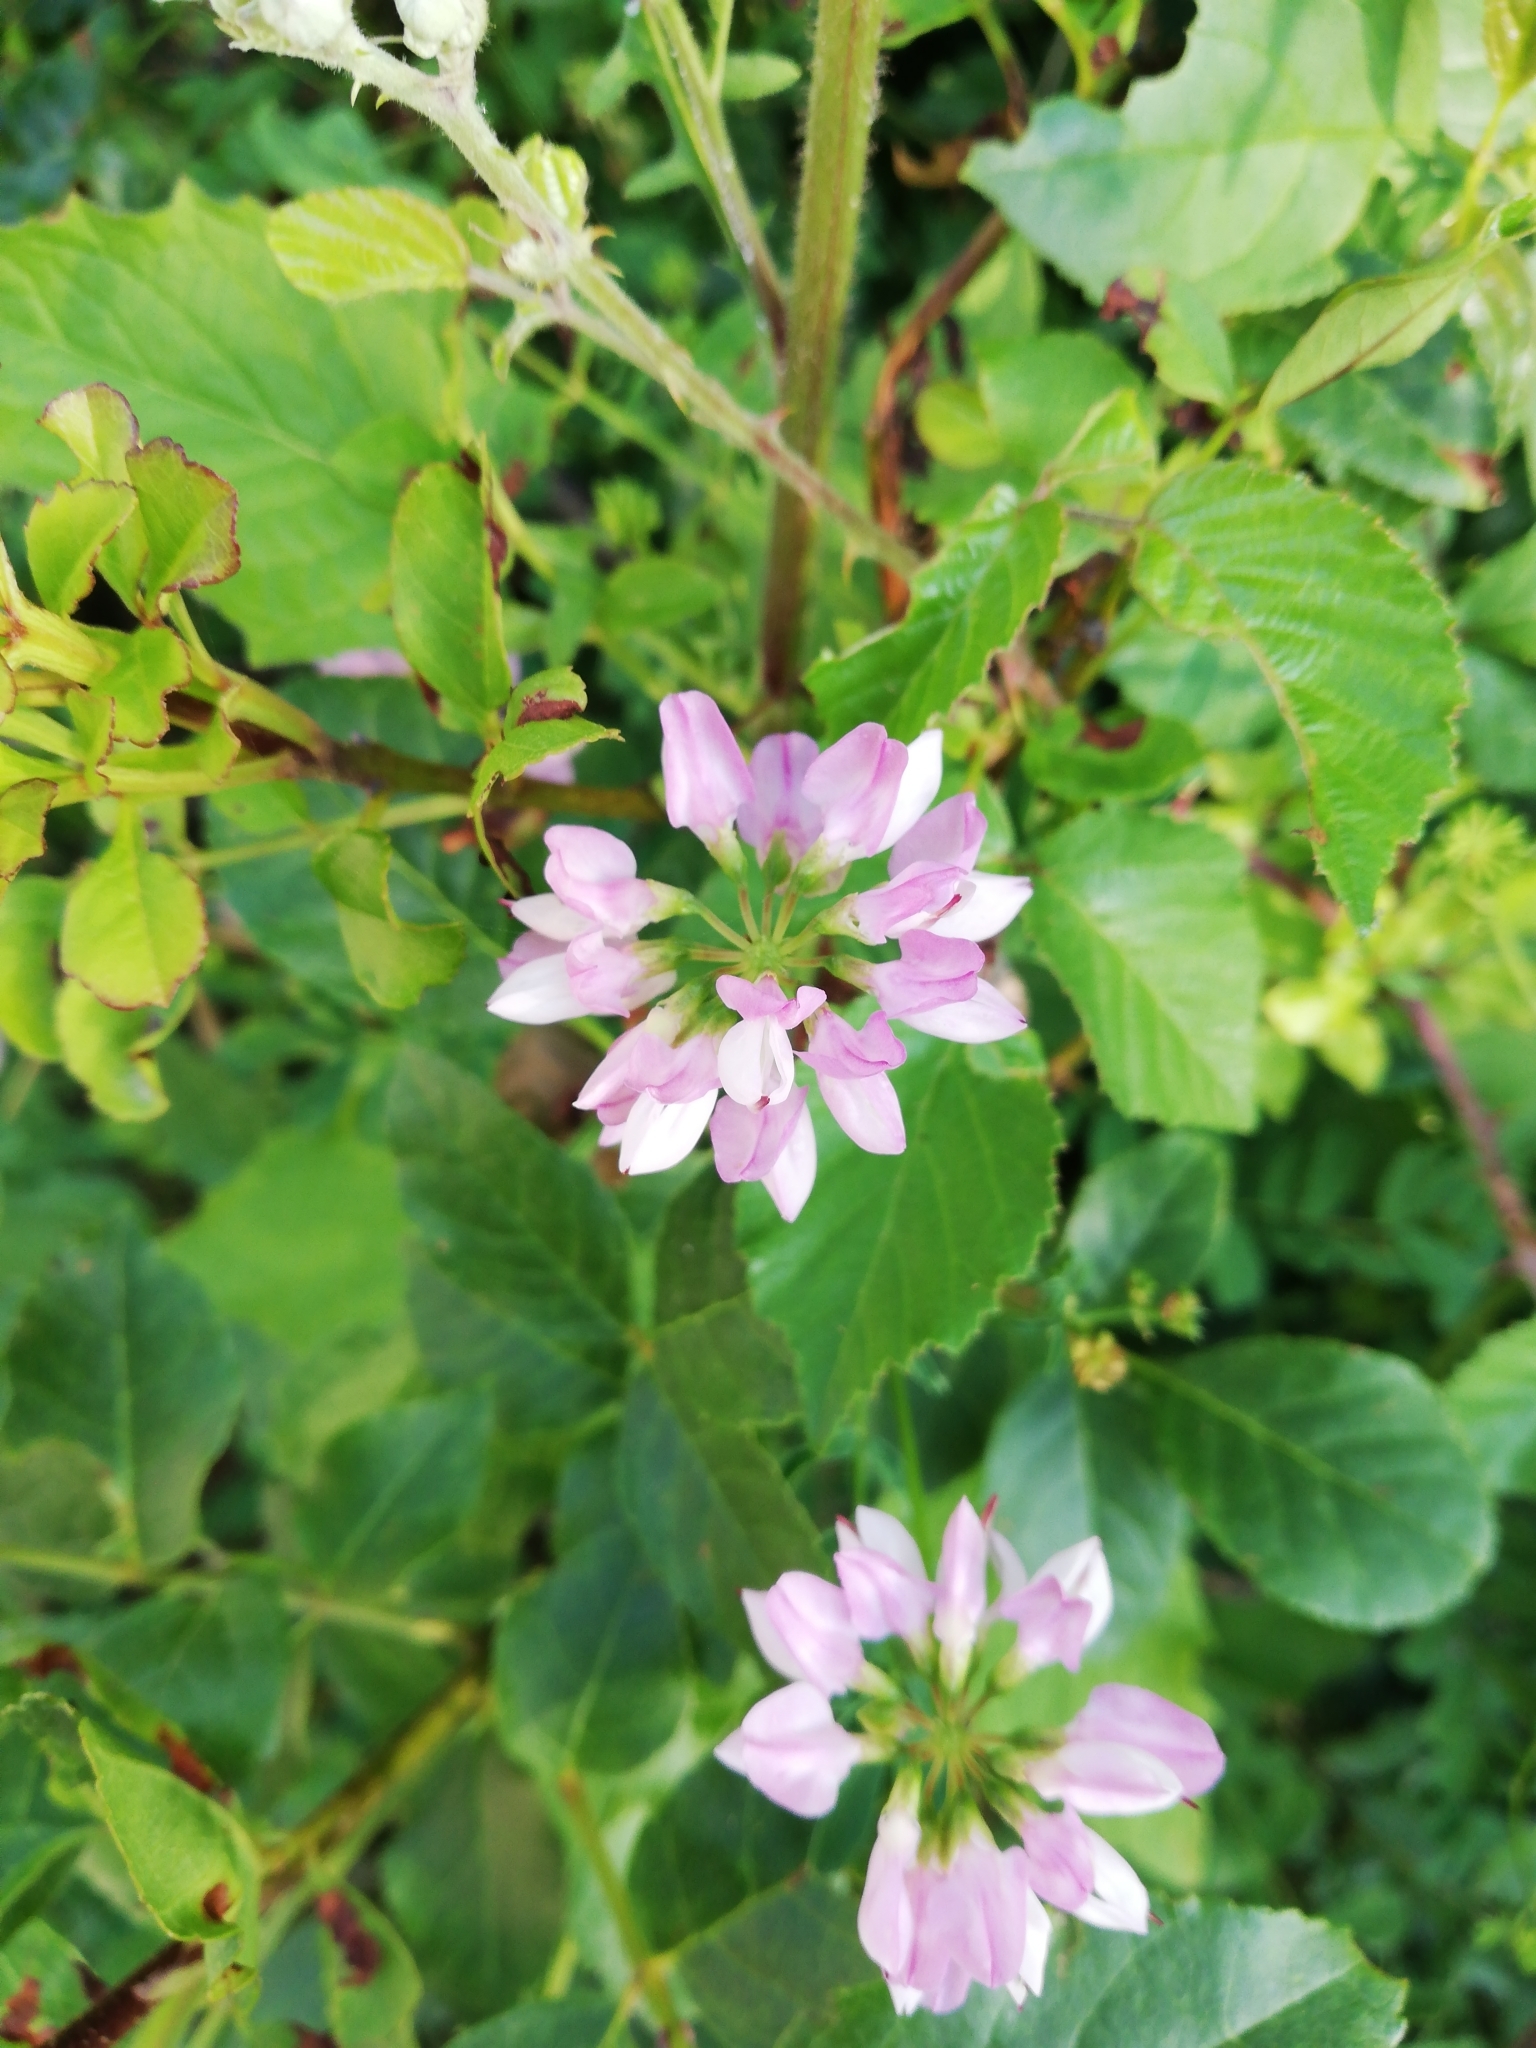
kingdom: Plantae
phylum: Tracheophyta
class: Magnoliopsida
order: Fabales
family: Fabaceae
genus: Coronilla
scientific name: Coronilla varia
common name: Crownvetch
